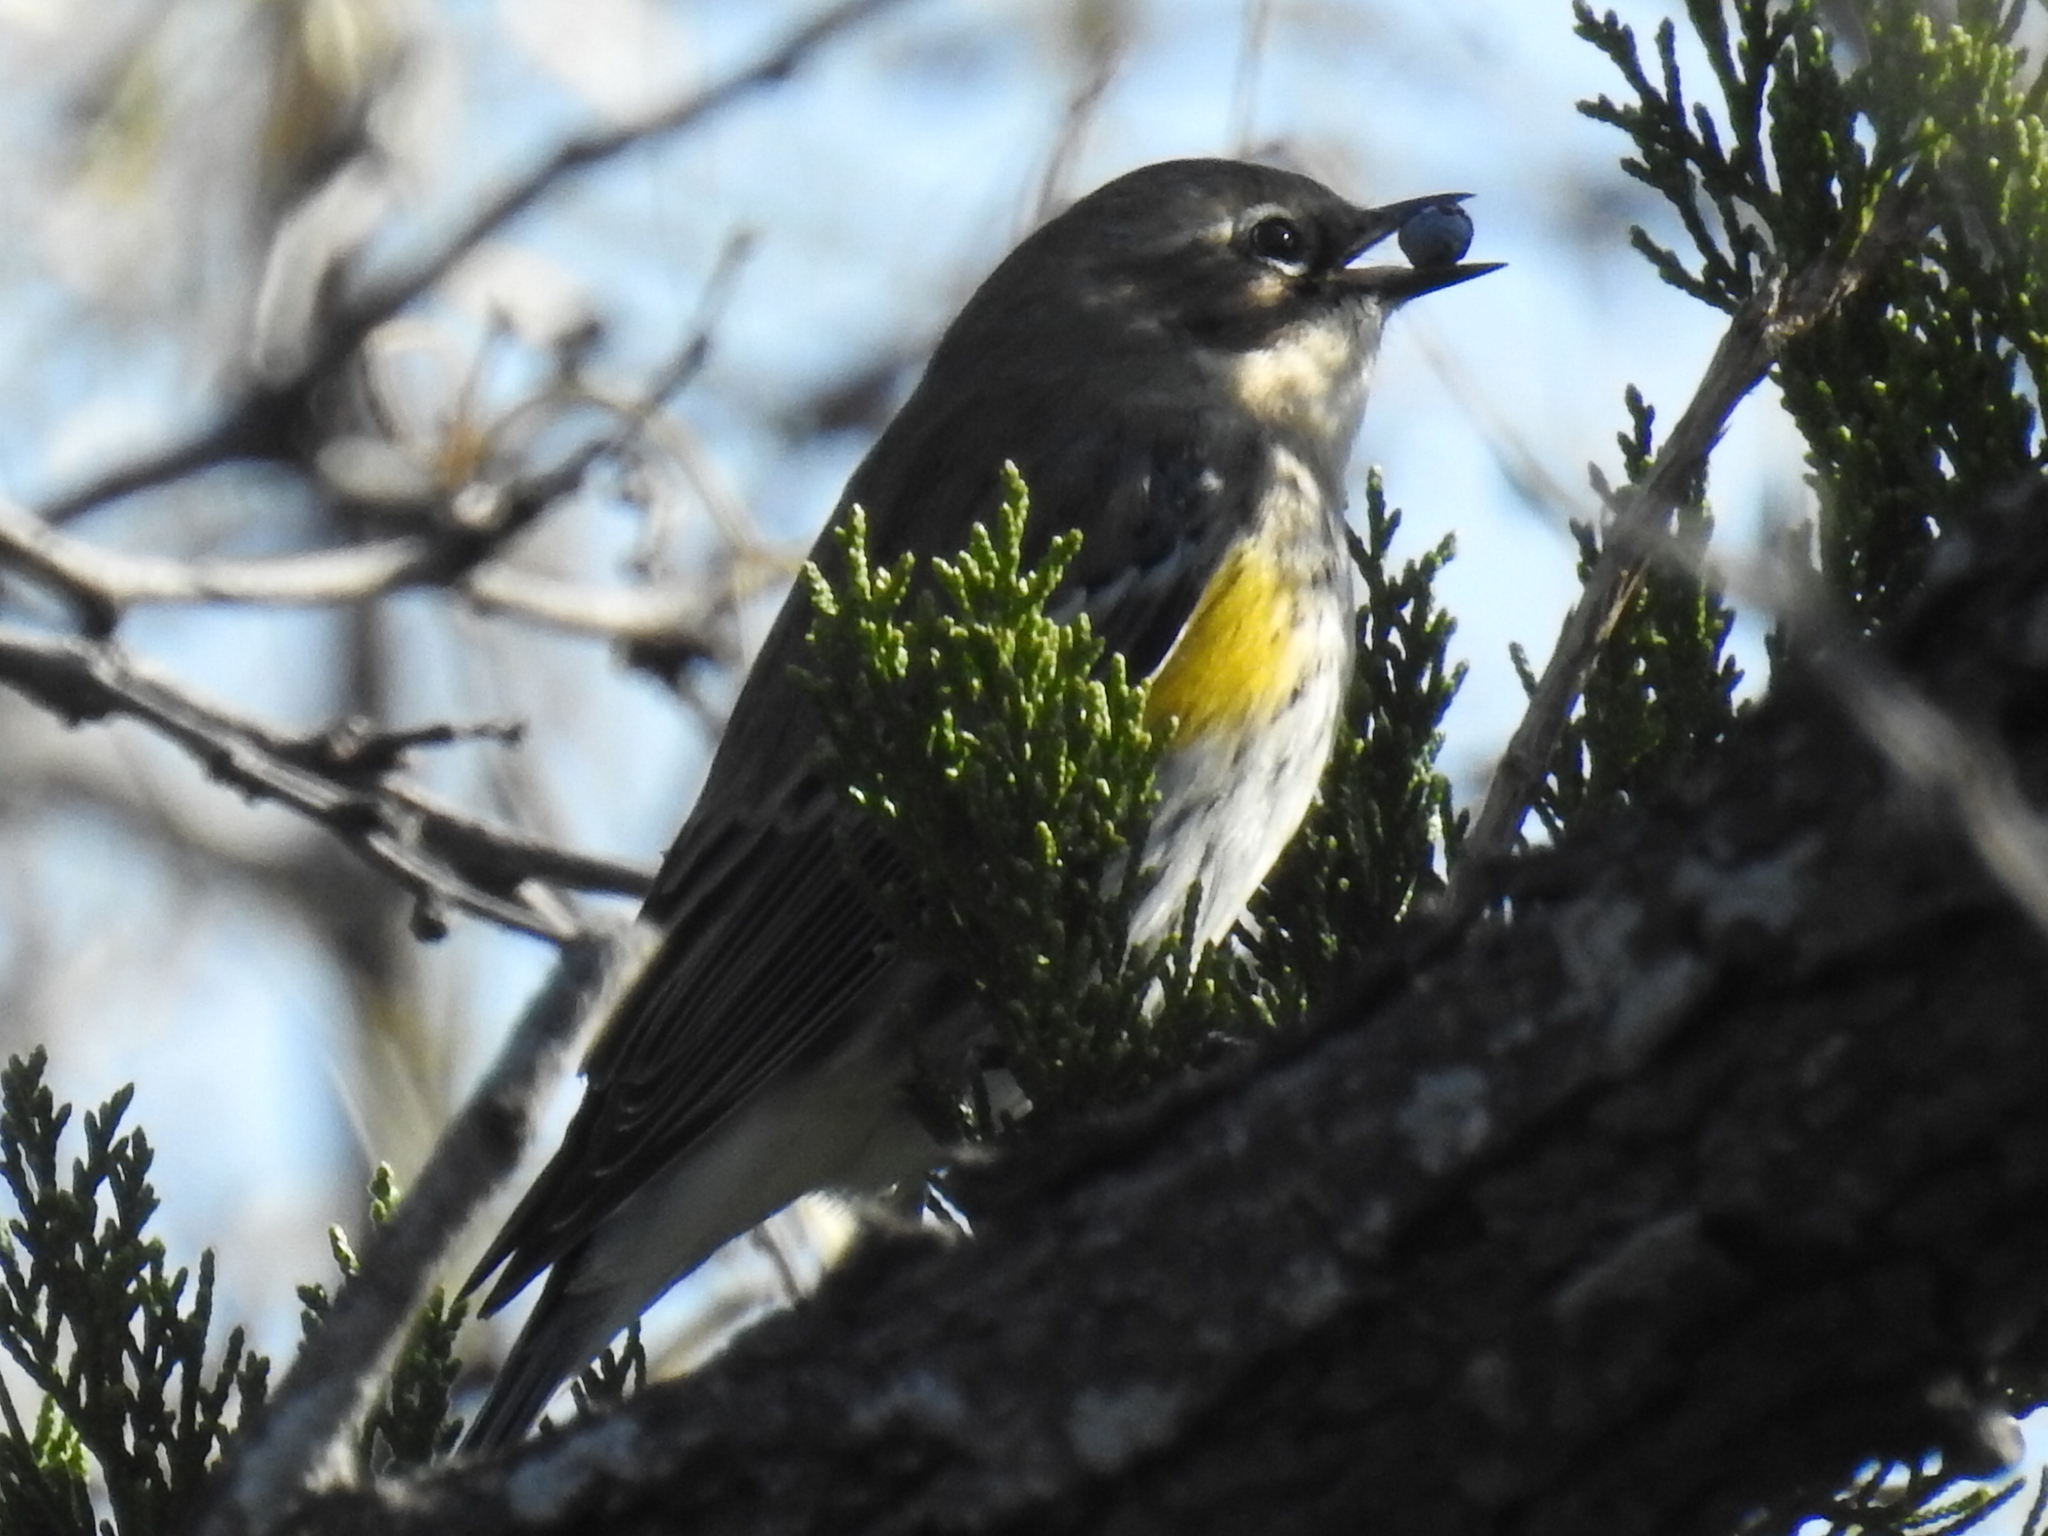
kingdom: Animalia
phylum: Chordata
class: Aves
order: Passeriformes
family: Parulidae
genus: Setophaga
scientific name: Setophaga coronata
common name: Myrtle warbler
